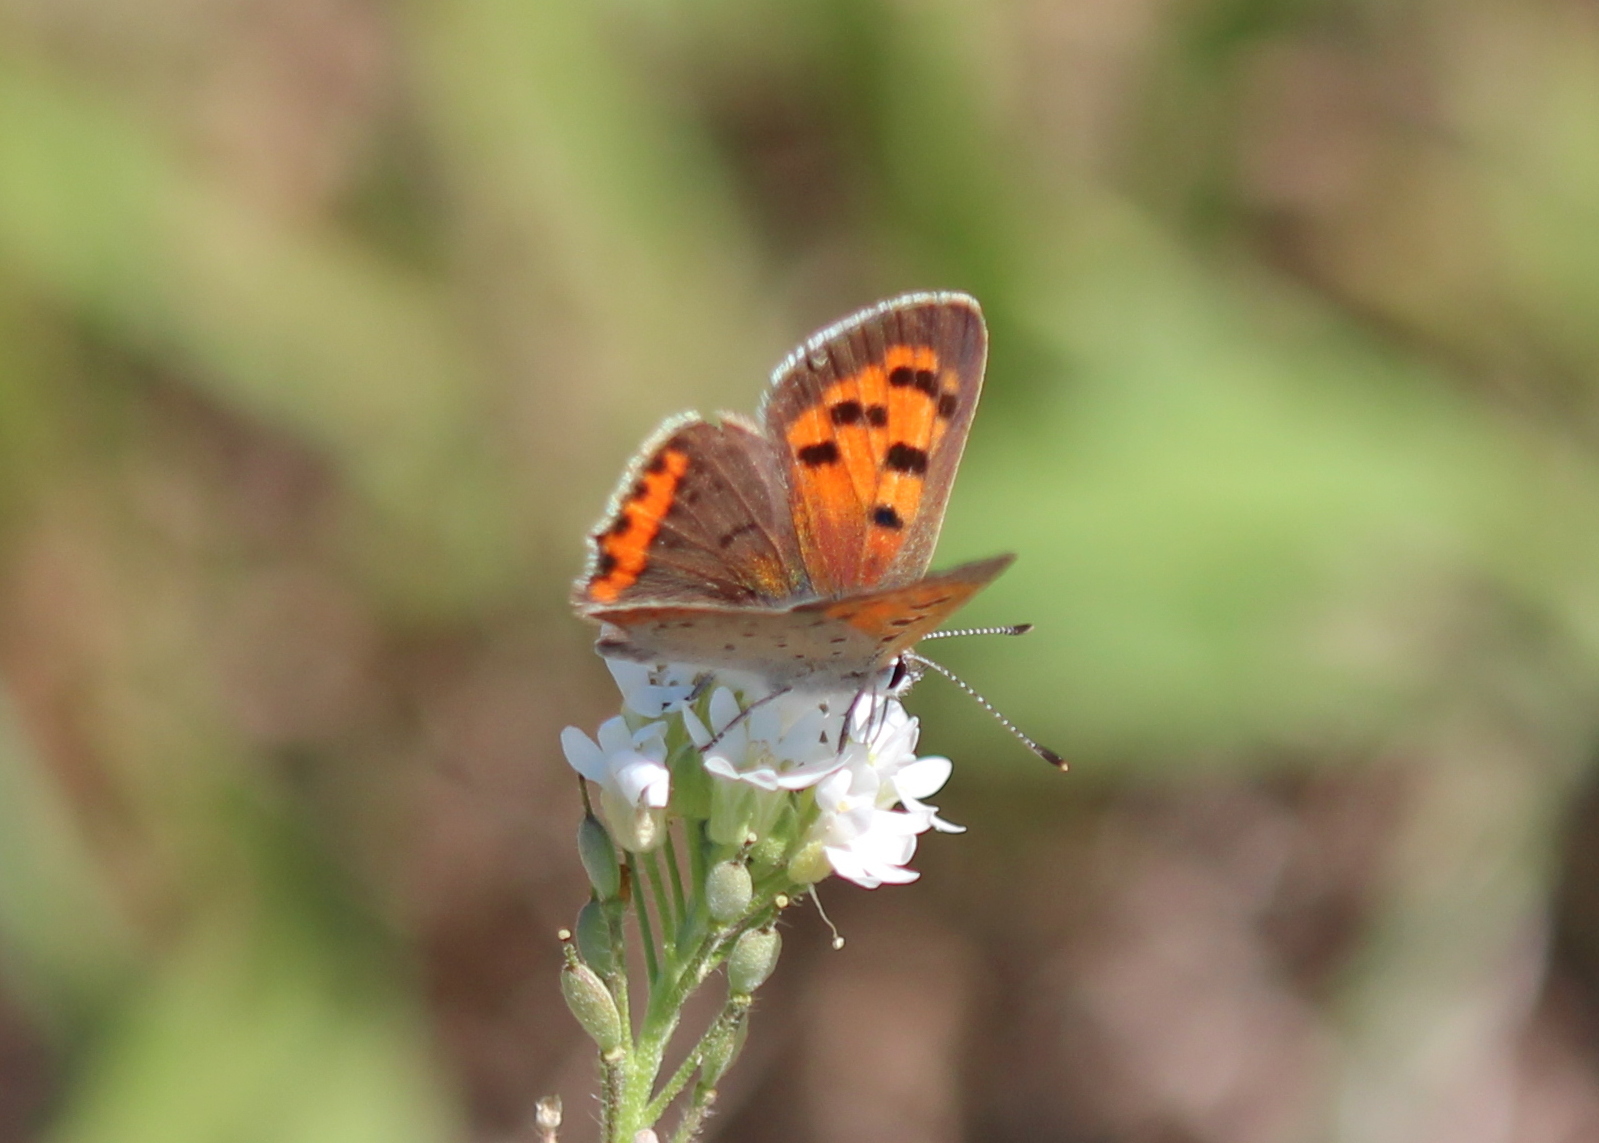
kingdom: Animalia
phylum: Arthropoda
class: Insecta
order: Lepidoptera
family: Lycaenidae
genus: Lycaena
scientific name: Lycaena hypophlaeas
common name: American copper
